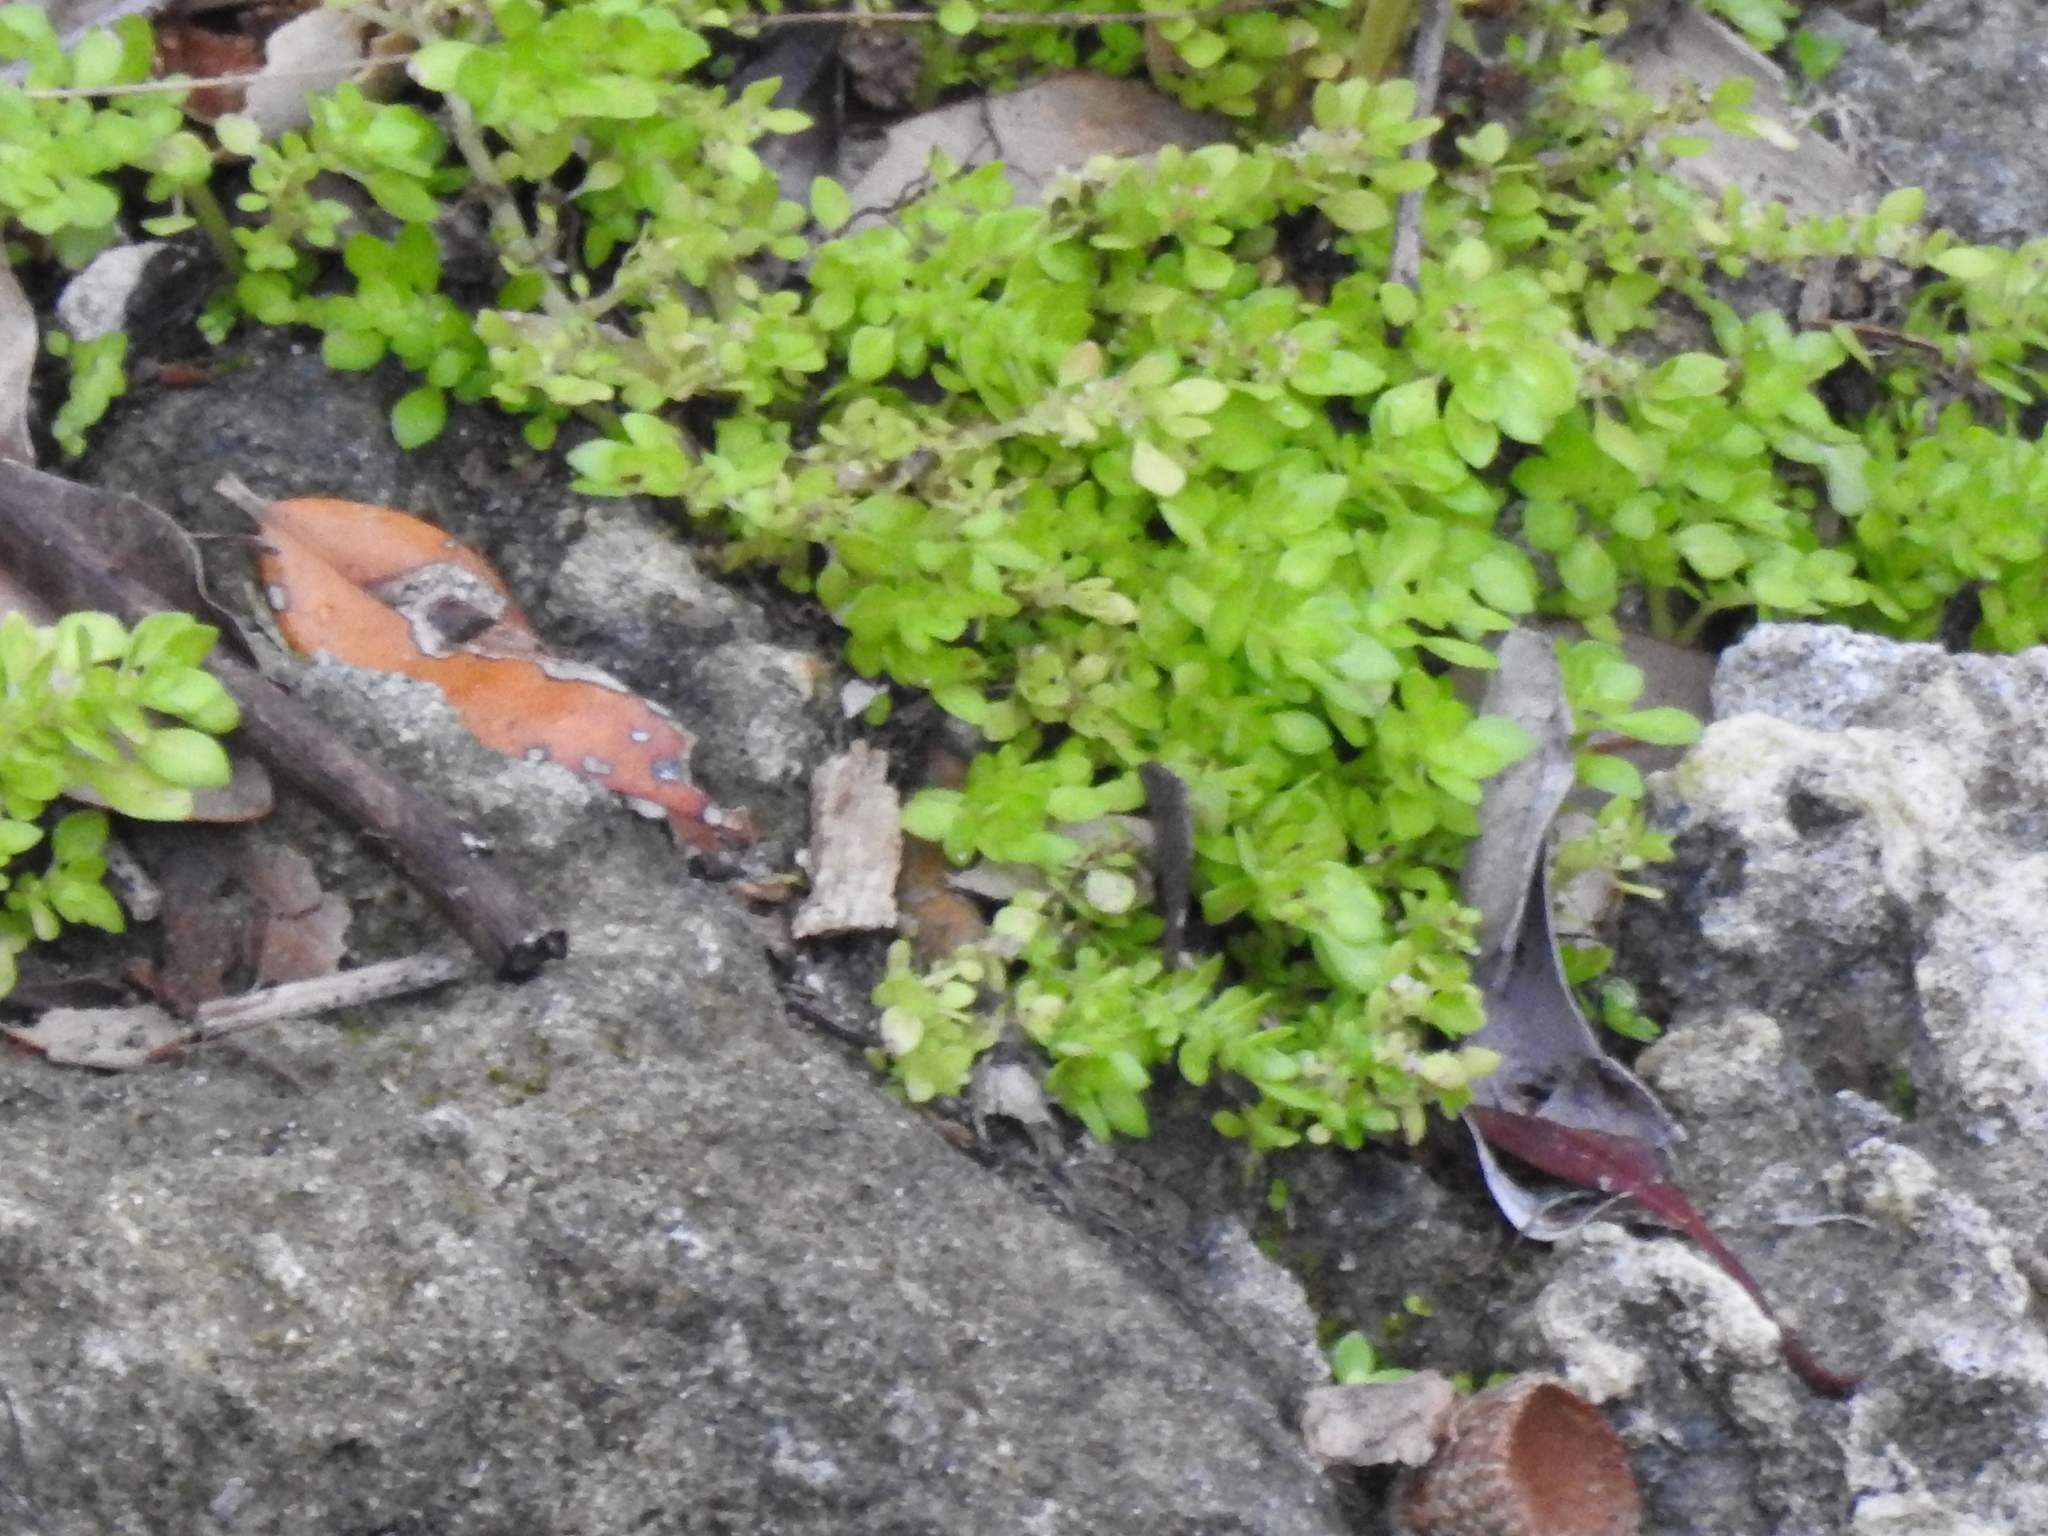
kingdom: Plantae
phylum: Tracheophyta
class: Magnoliopsida
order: Rosales
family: Urticaceae
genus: Pilea
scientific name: Pilea microphylla
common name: Artillery-plant
